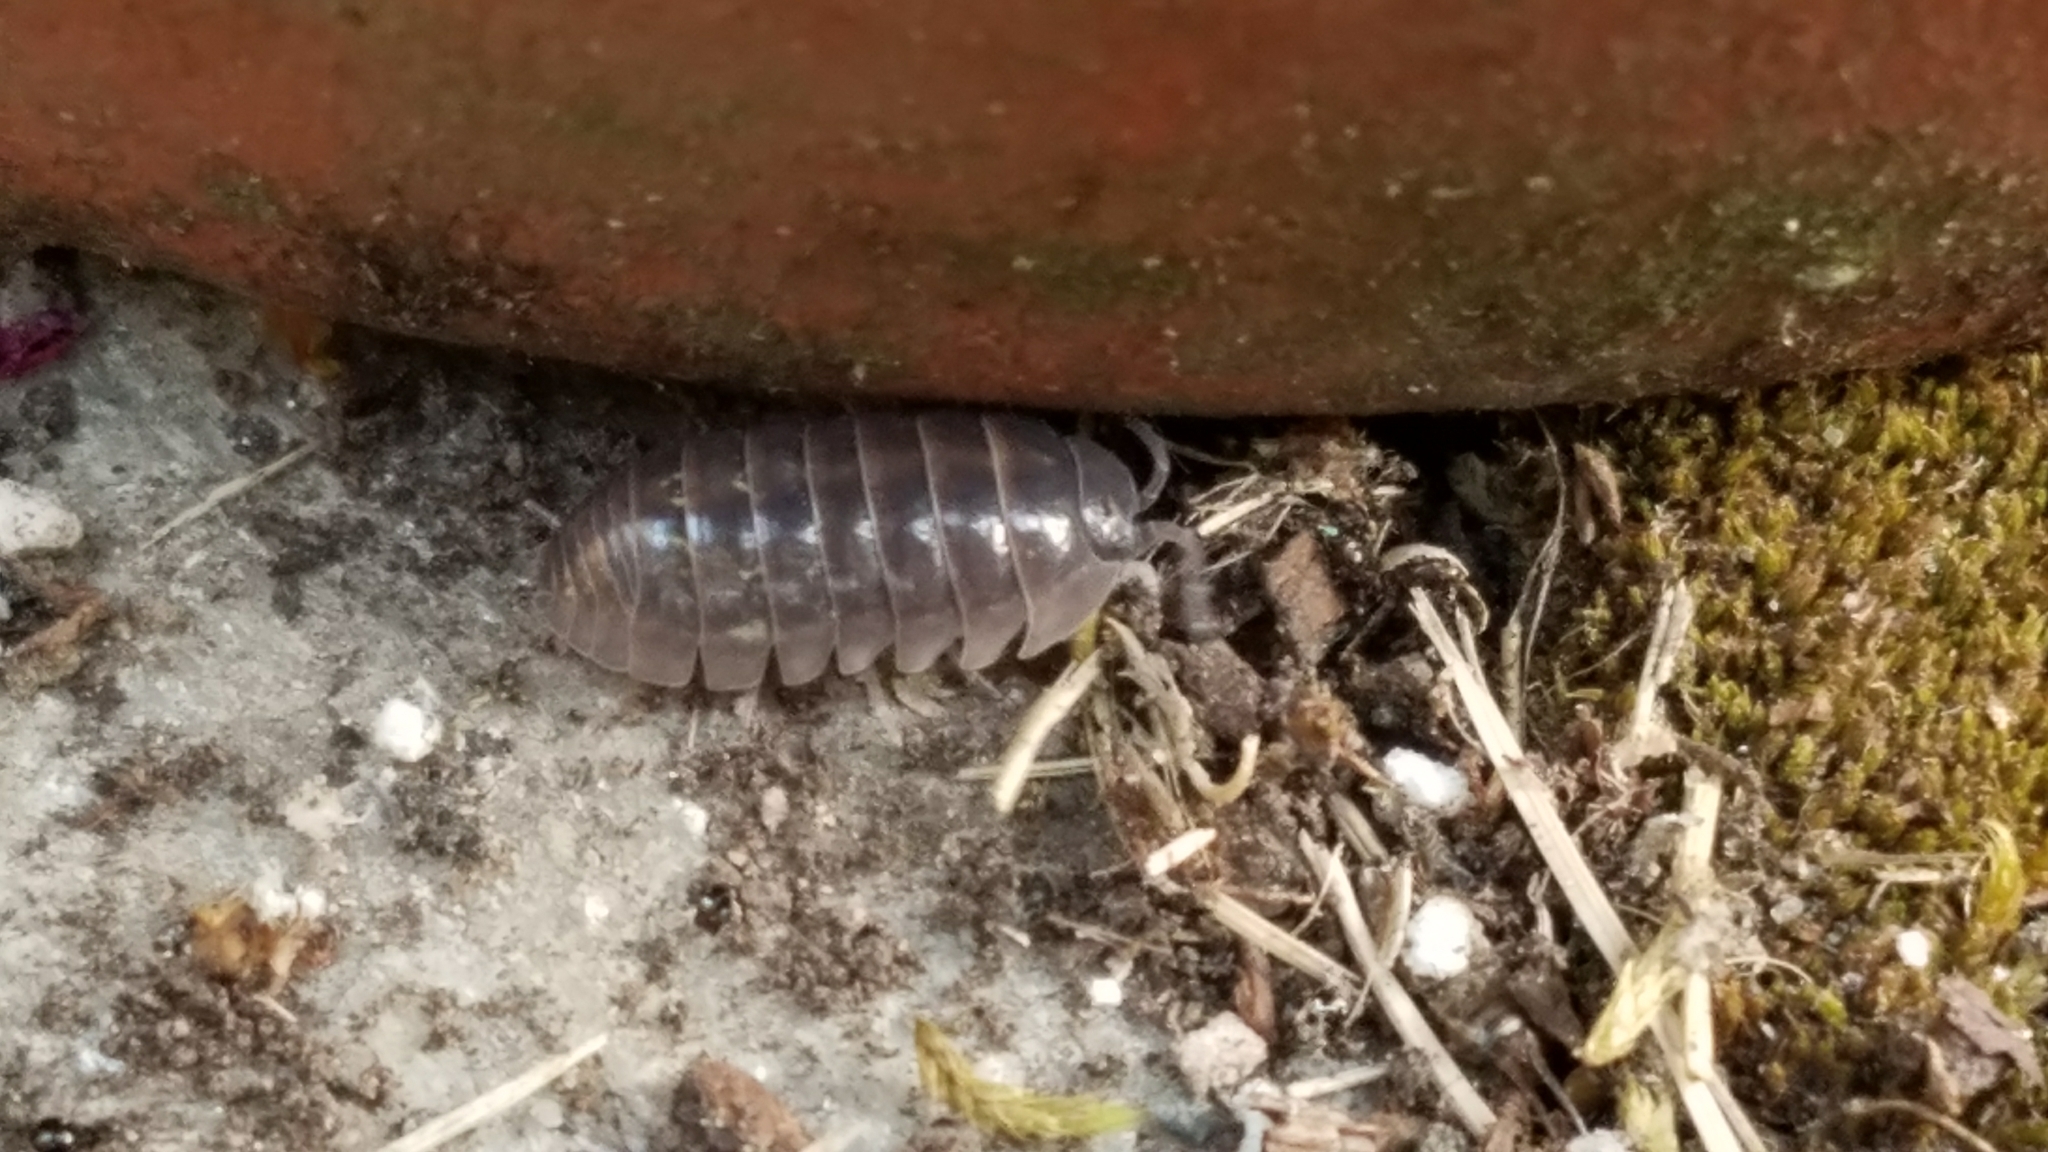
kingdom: Animalia
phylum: Arthropoda
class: Malacostraca
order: Isopoda
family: Armadillidiidae
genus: Armadillidium
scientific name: Armadillidium vulgare
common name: Common pill woodlouse
